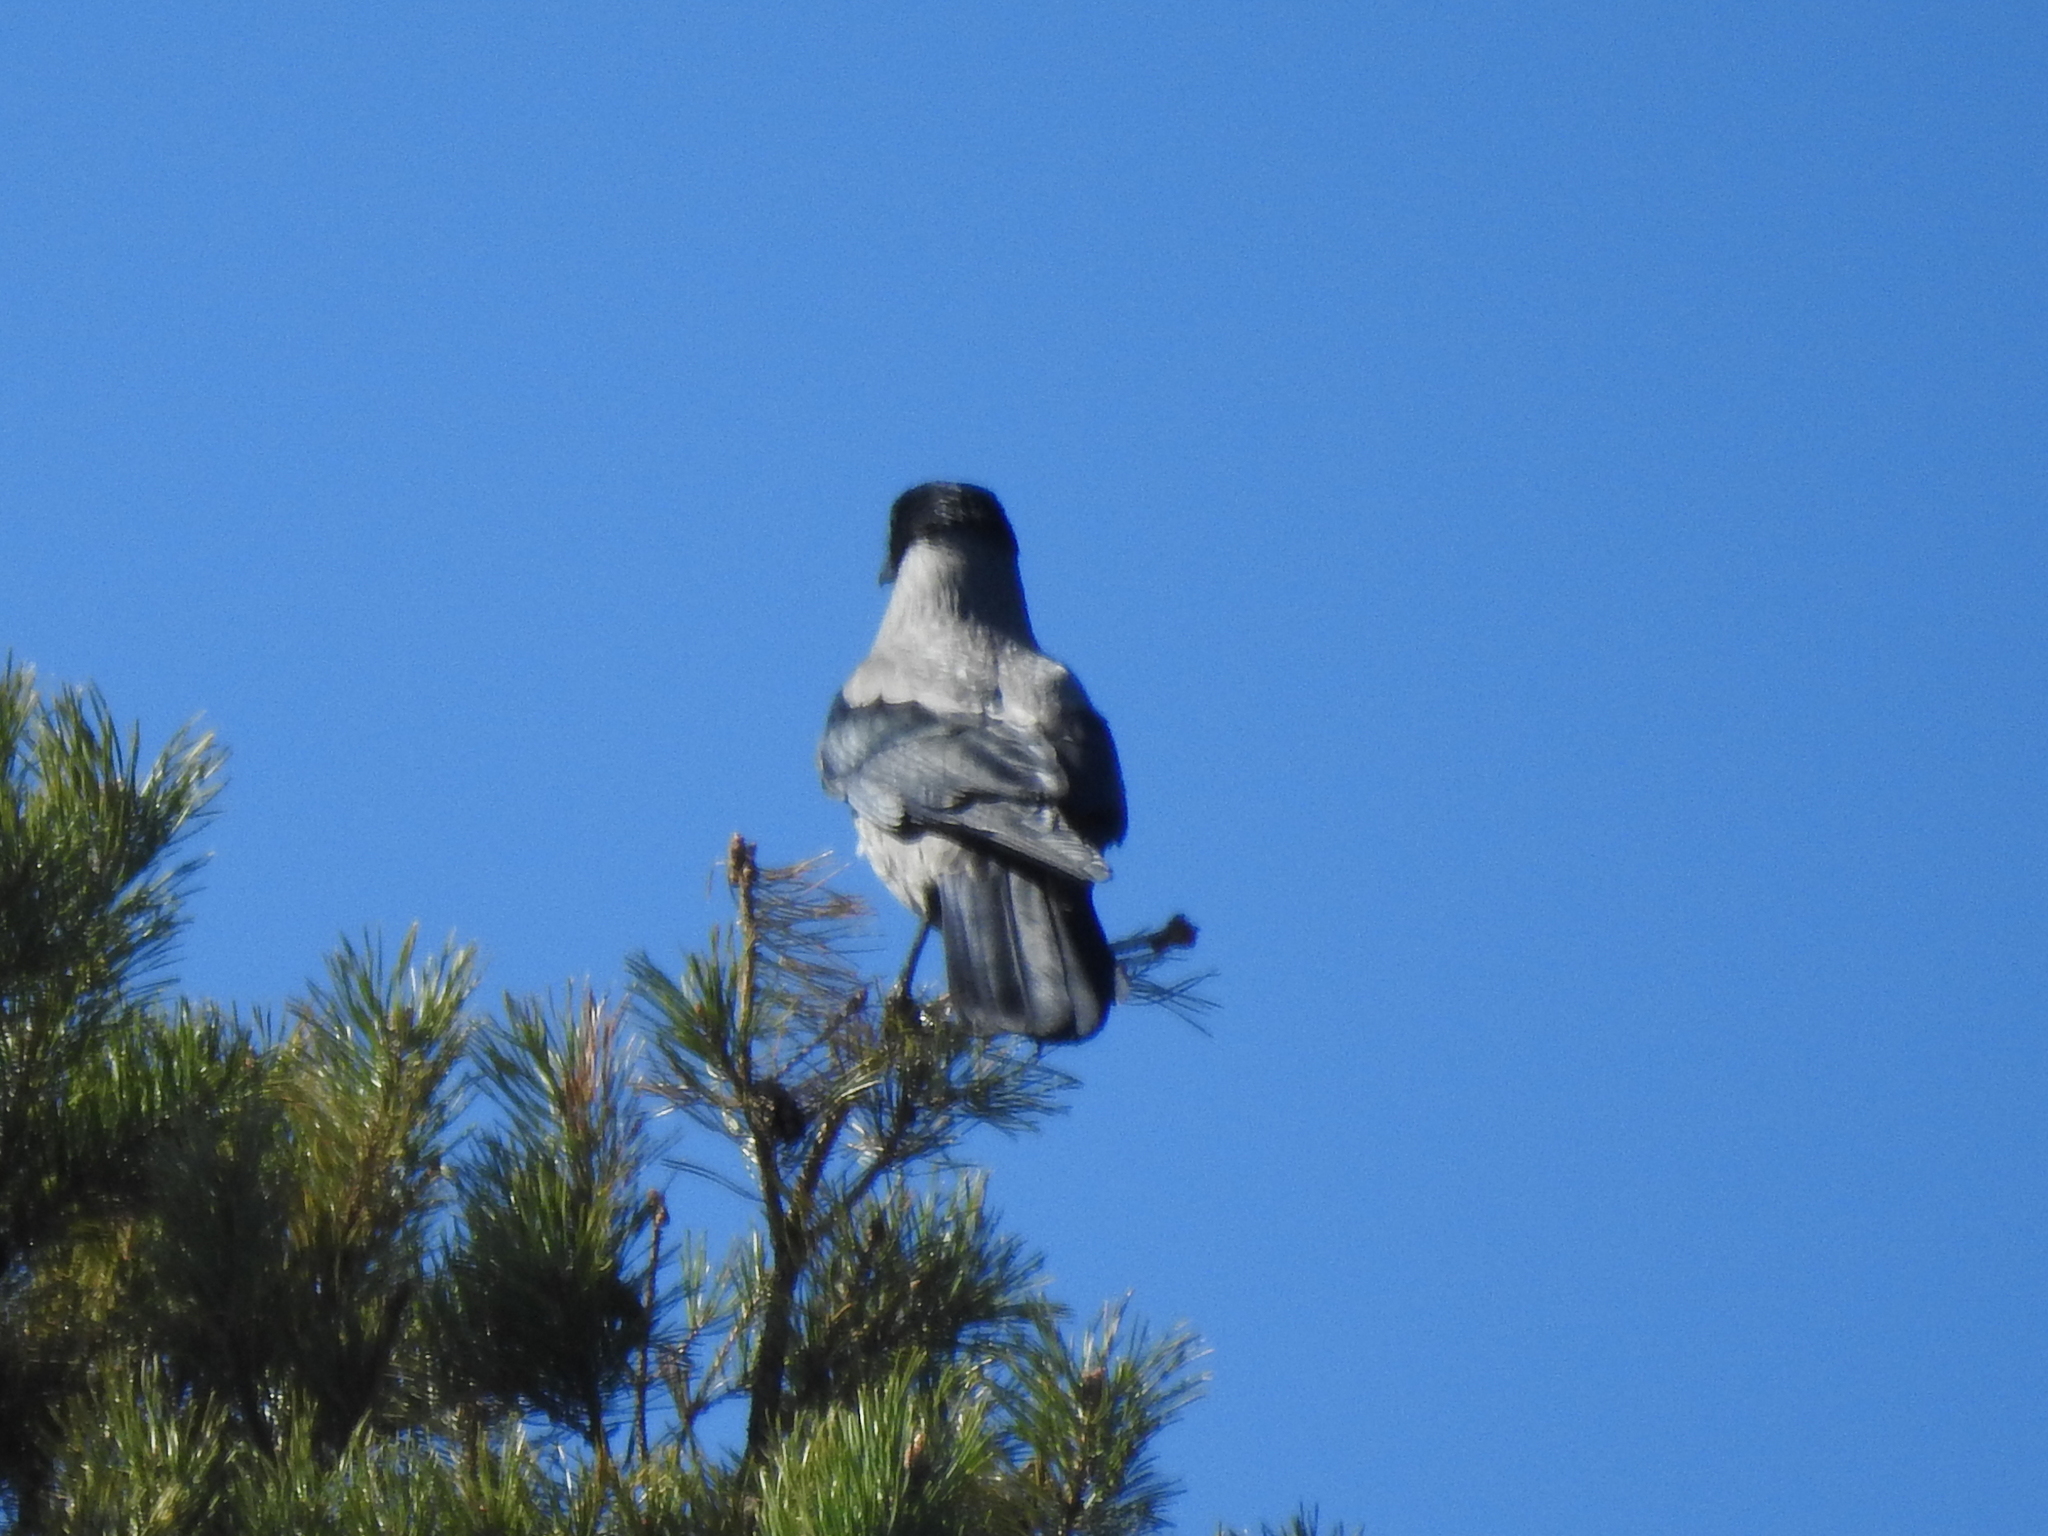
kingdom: Animalia
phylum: Chordata
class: Aves
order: Passeriformes
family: Corvidae
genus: Corvus
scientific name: Corvus cornix
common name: Hooded crow
